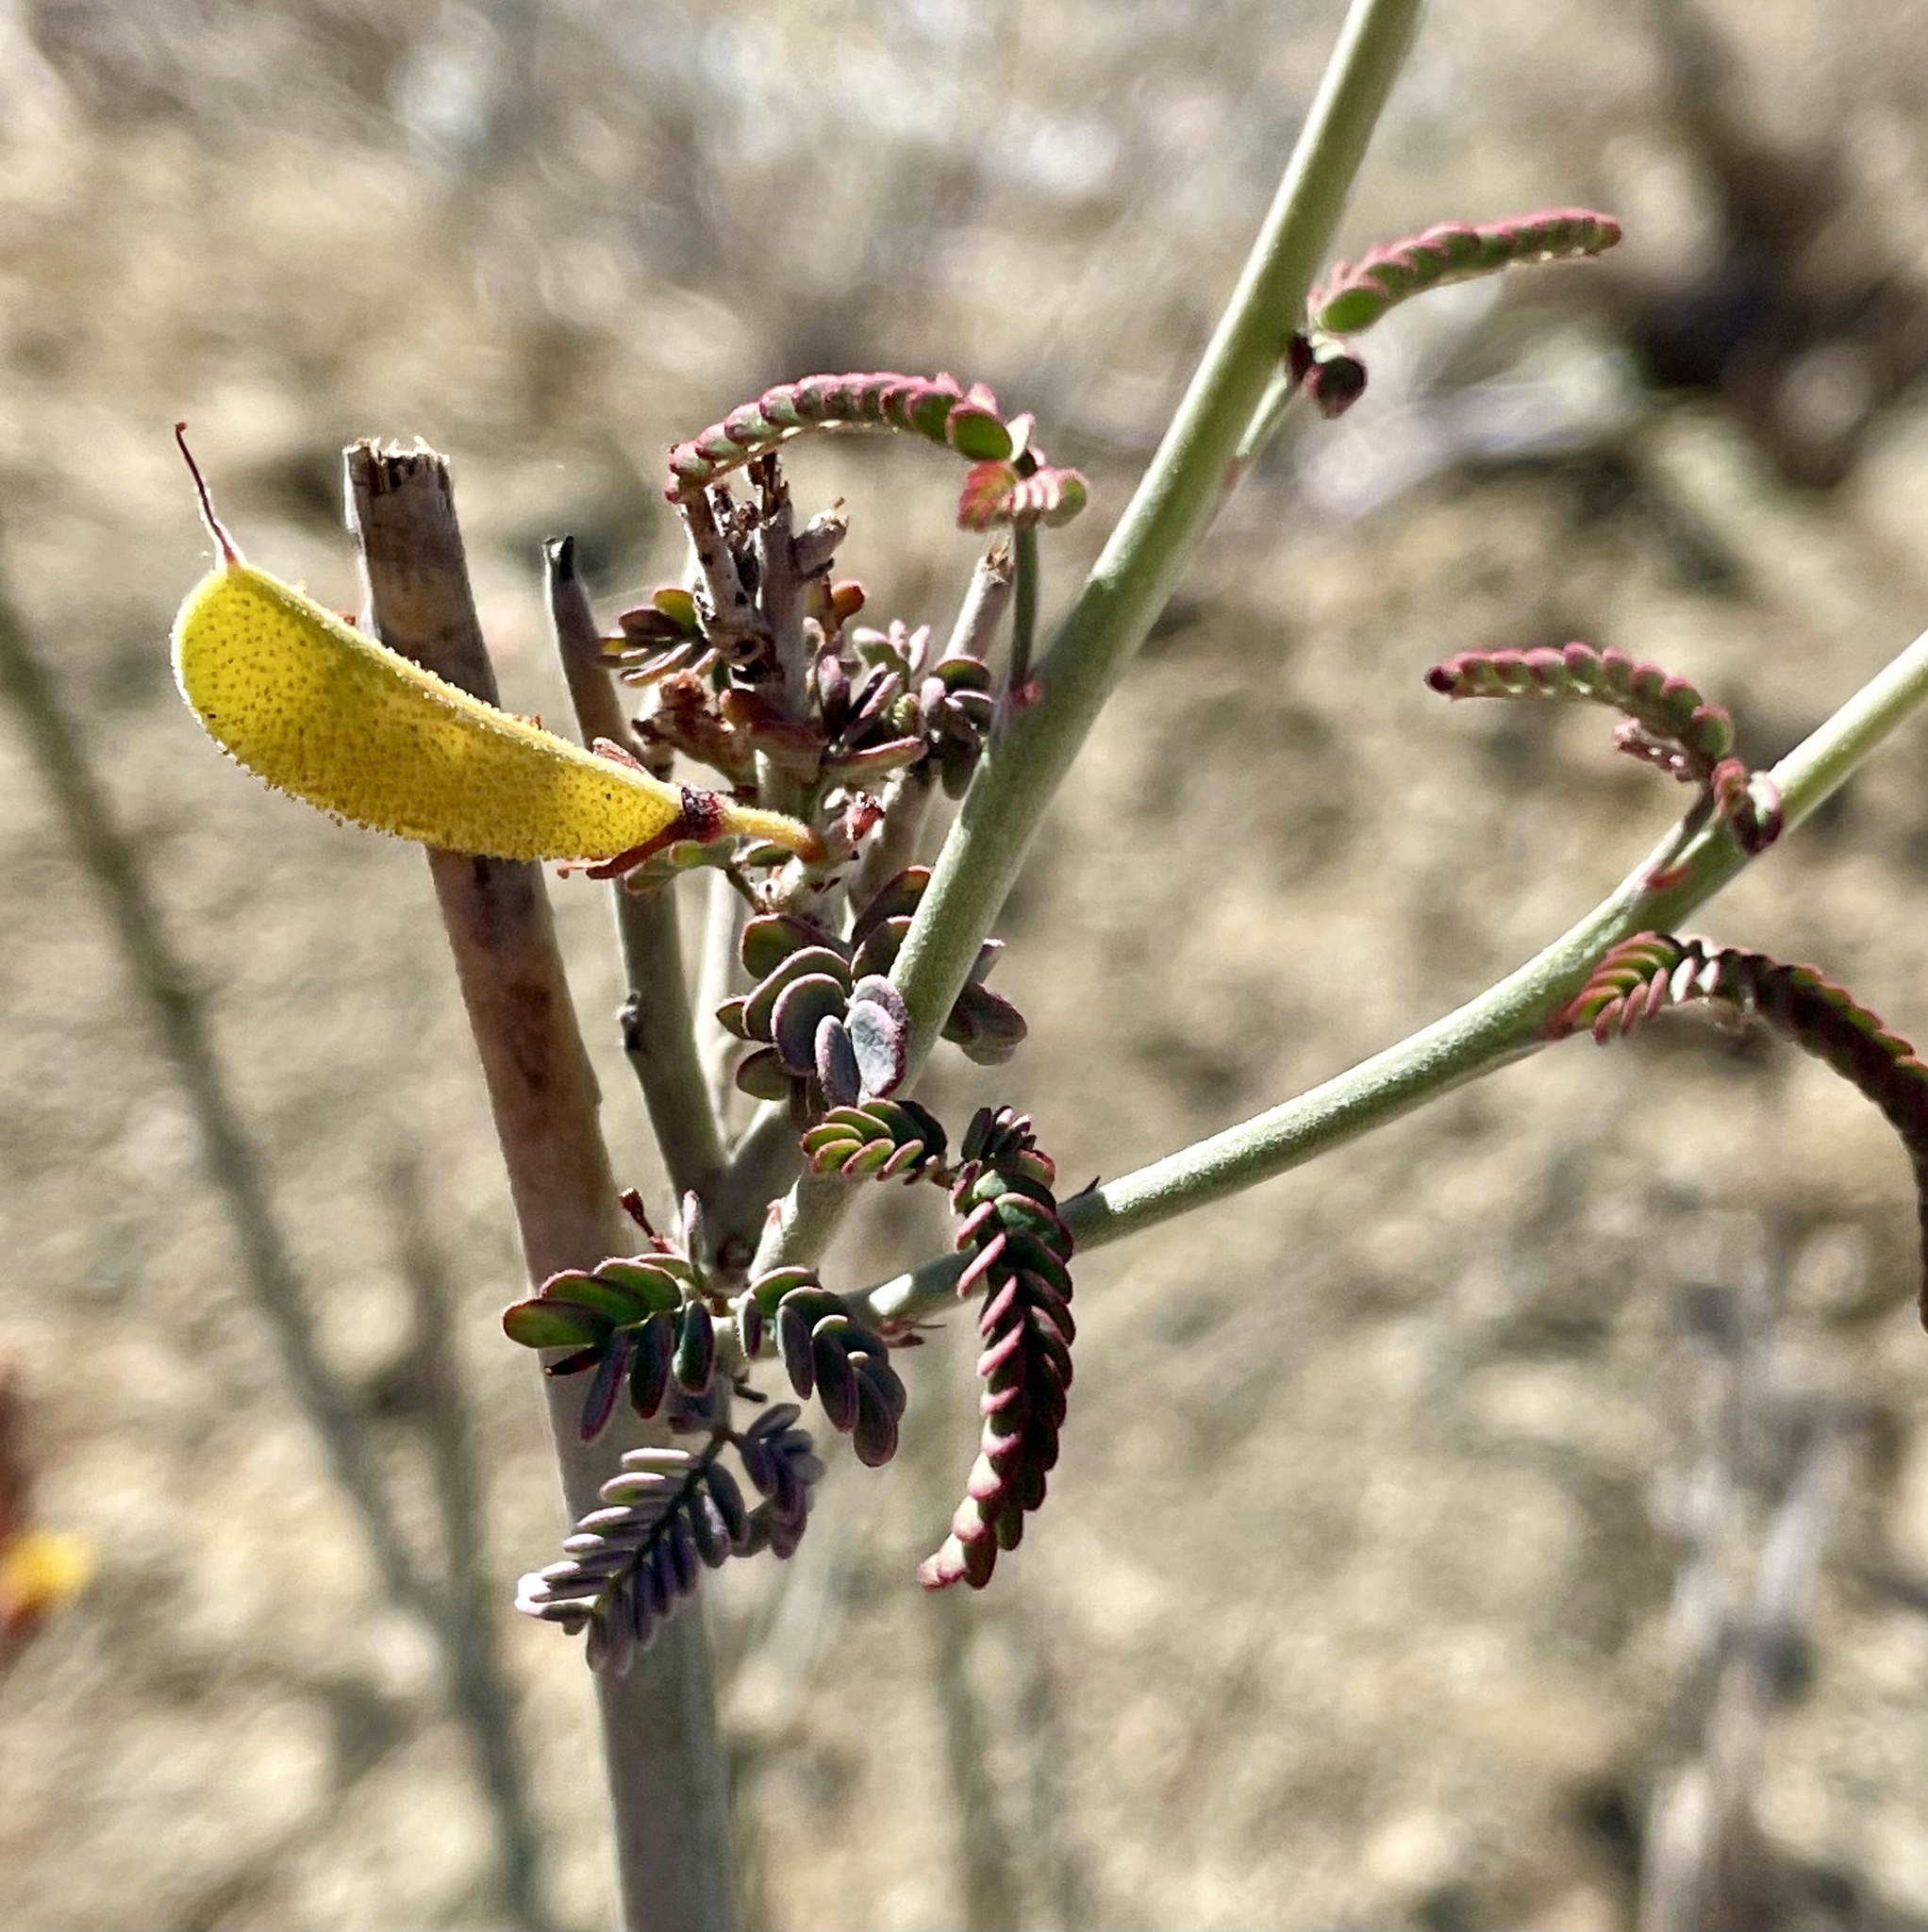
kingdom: Plantae
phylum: Tracheophyta
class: Magnoliopsida
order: Fabales
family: Fabaceae
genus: Hoffmannseggia
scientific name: Hoffmannseggia microphylla
